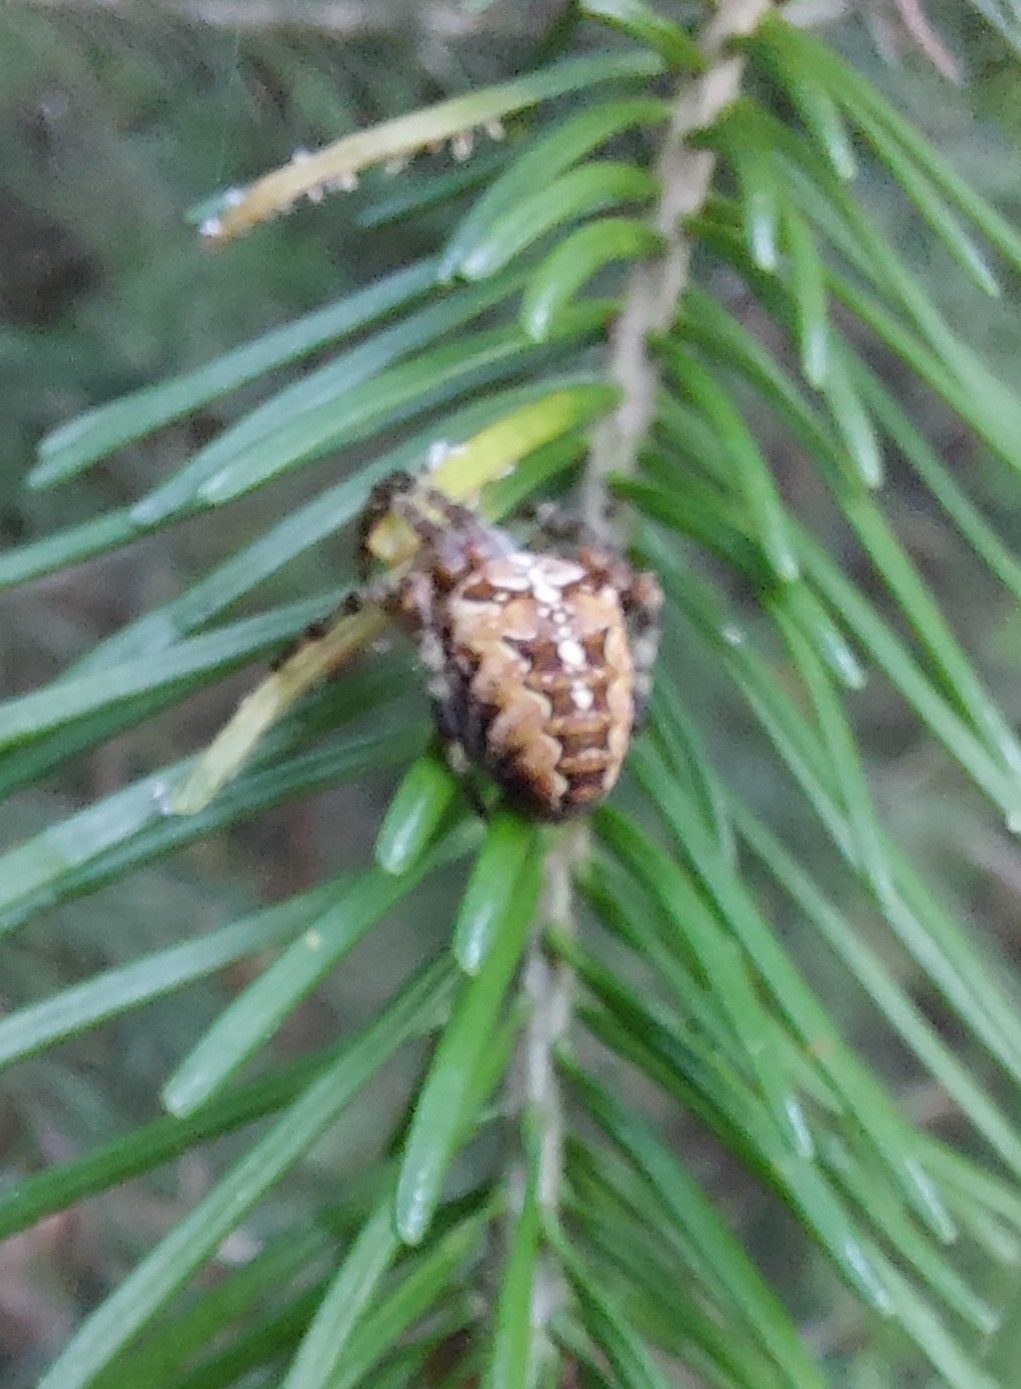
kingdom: Animalia
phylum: Arthropoda
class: Arachnida
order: Araneae
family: Araneidae
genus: Araneus
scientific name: Araneus diadematus
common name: Cross orbweaver
